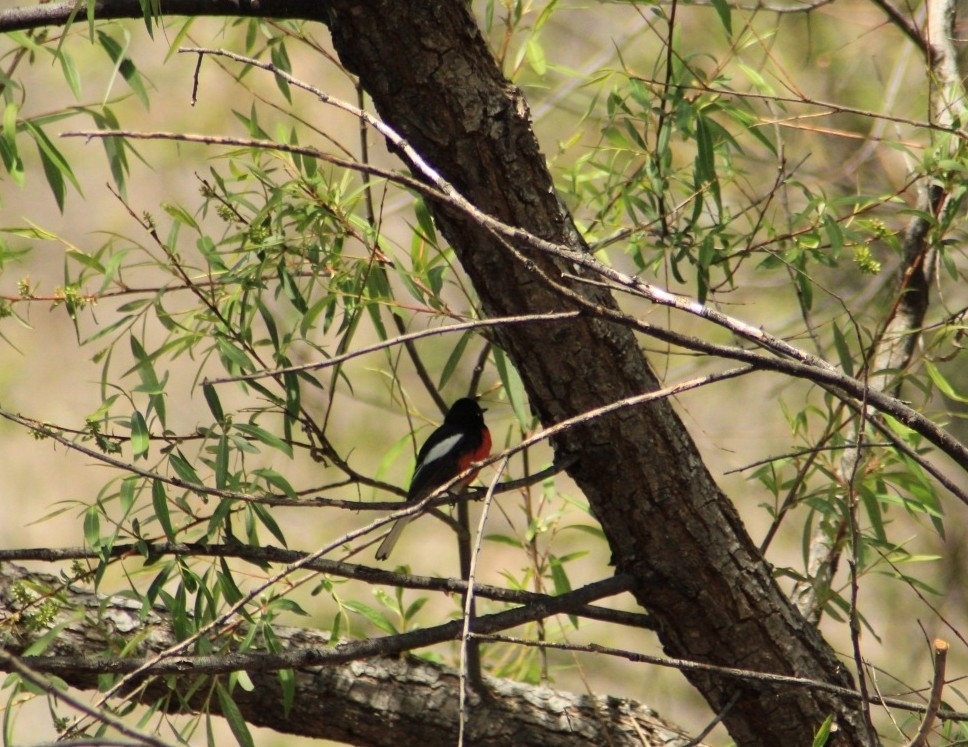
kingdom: Animalia
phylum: Chordata
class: Aves
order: Passeriformes
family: Parulidae
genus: Myioborus
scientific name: Myioborus pictus
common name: Painted whitestart
